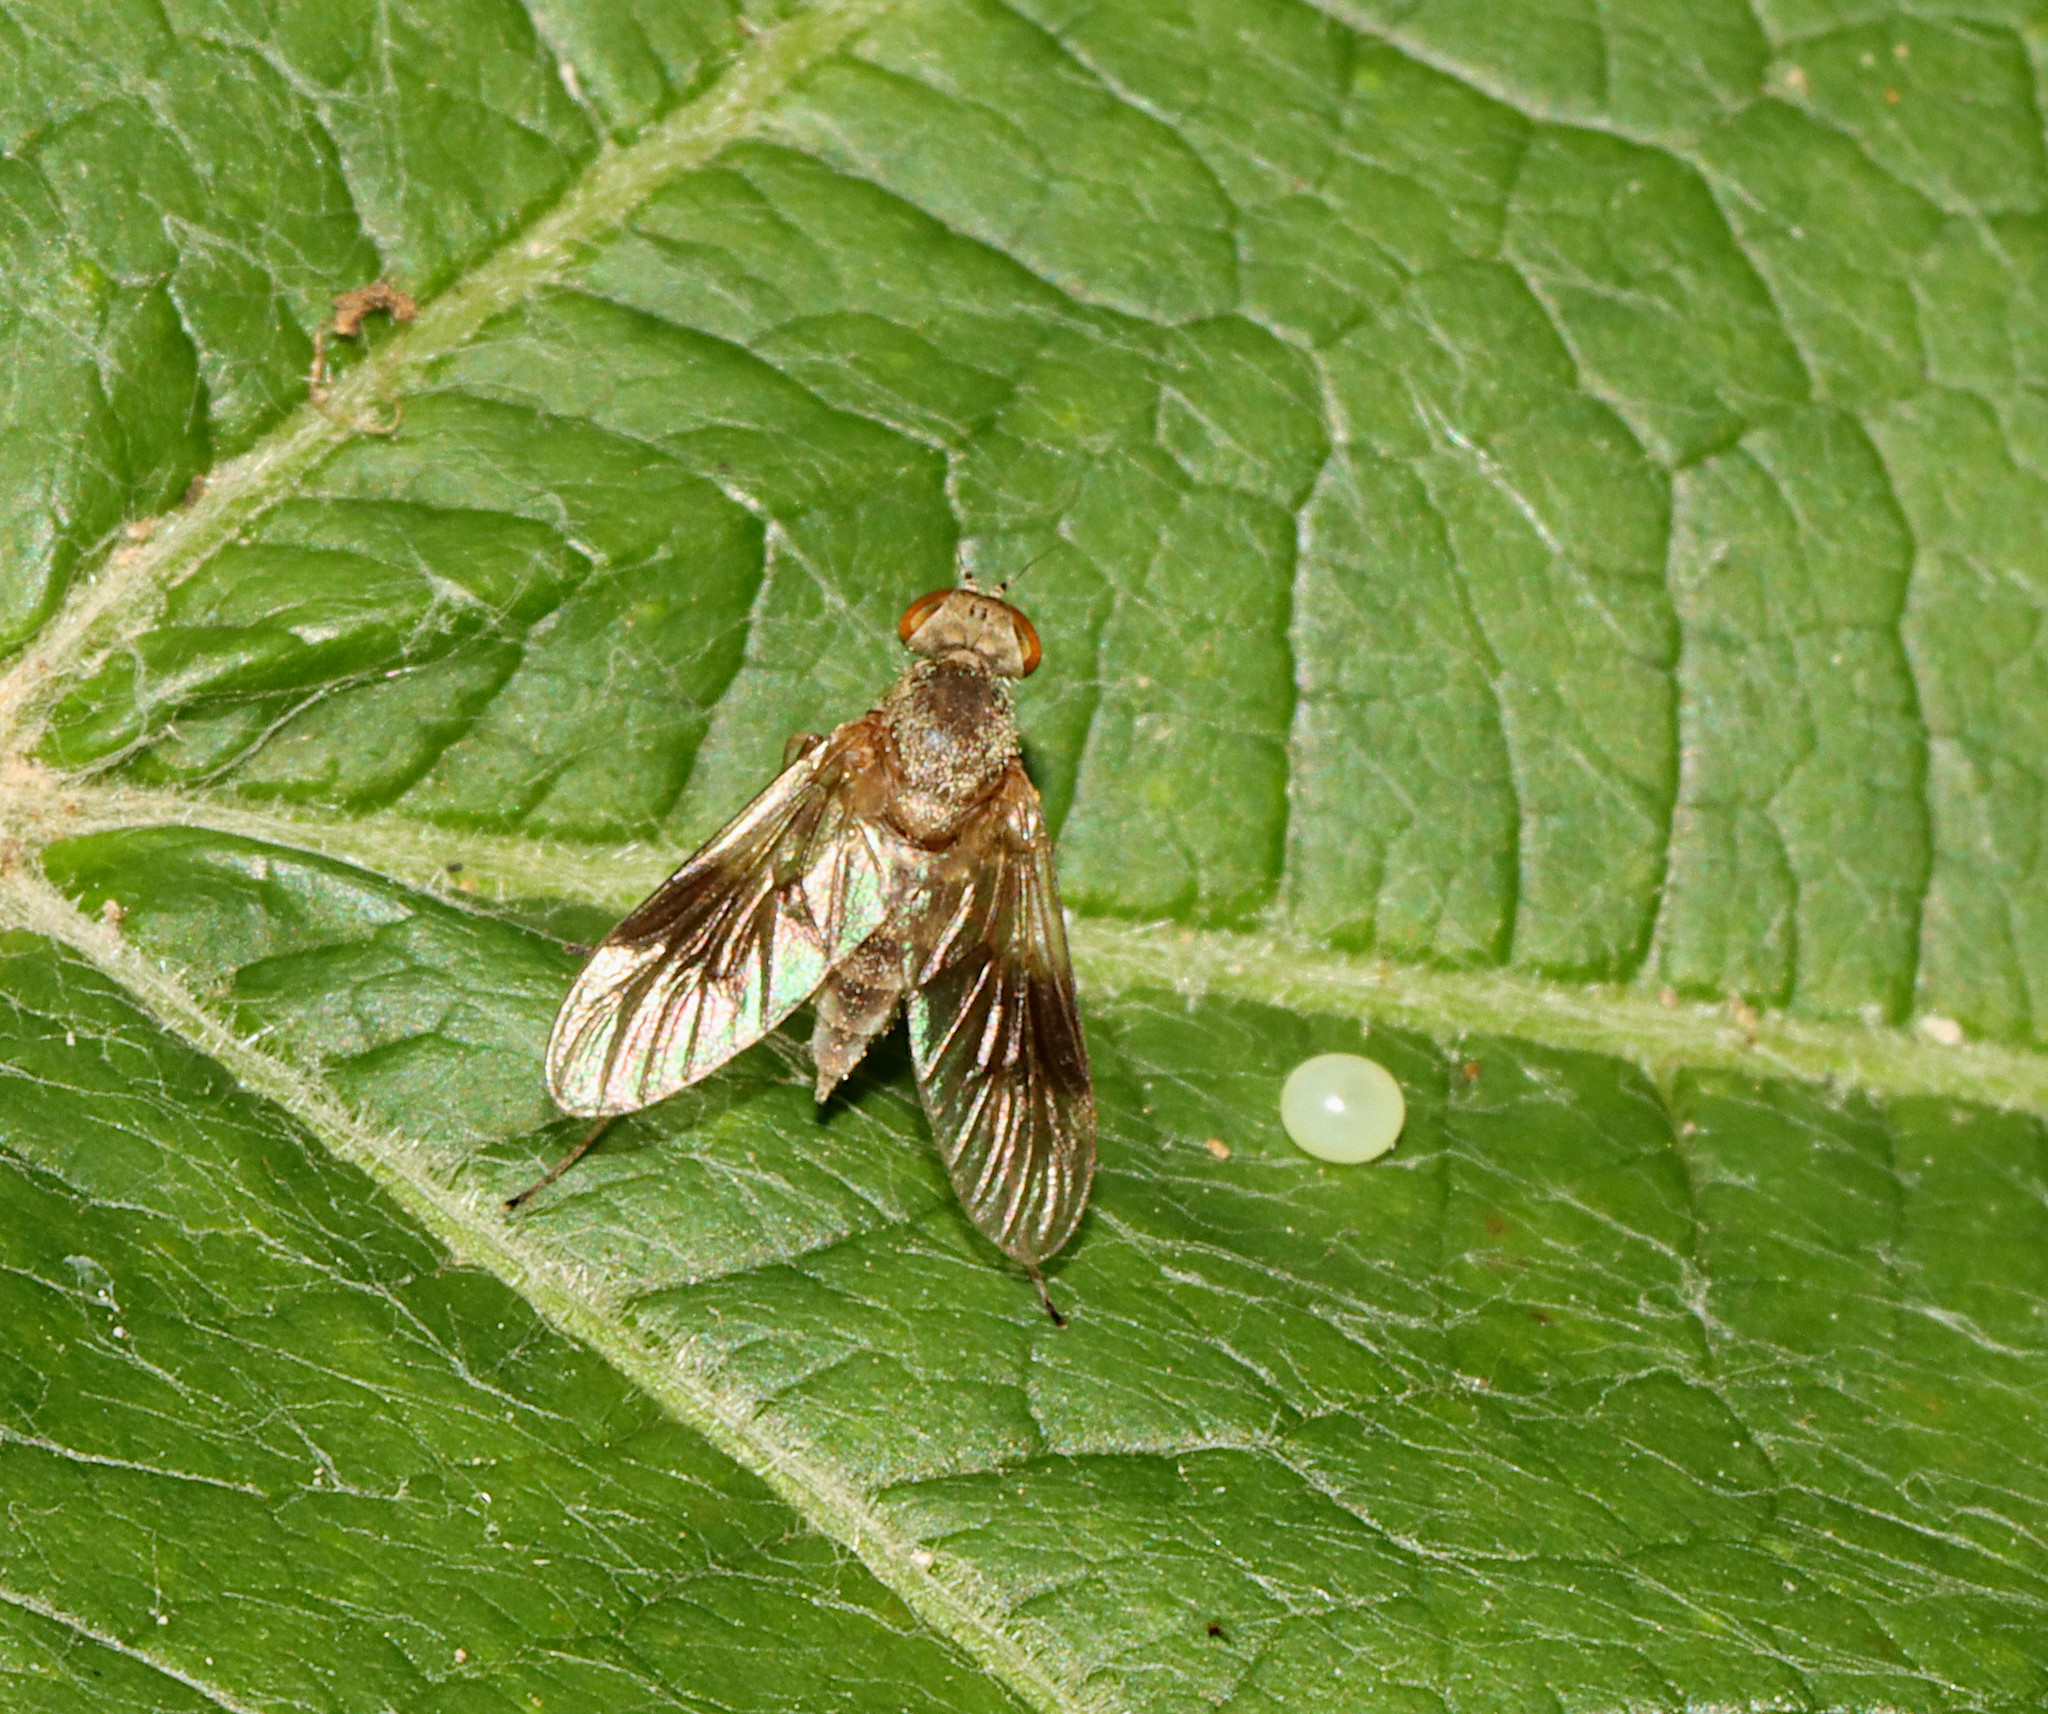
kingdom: Animalia
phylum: Arthropoda
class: Insecta
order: Diptera
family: Rhagionidae
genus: Chrysopilus
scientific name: Chrysopilus quadratus
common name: Quadrate snipe fly
